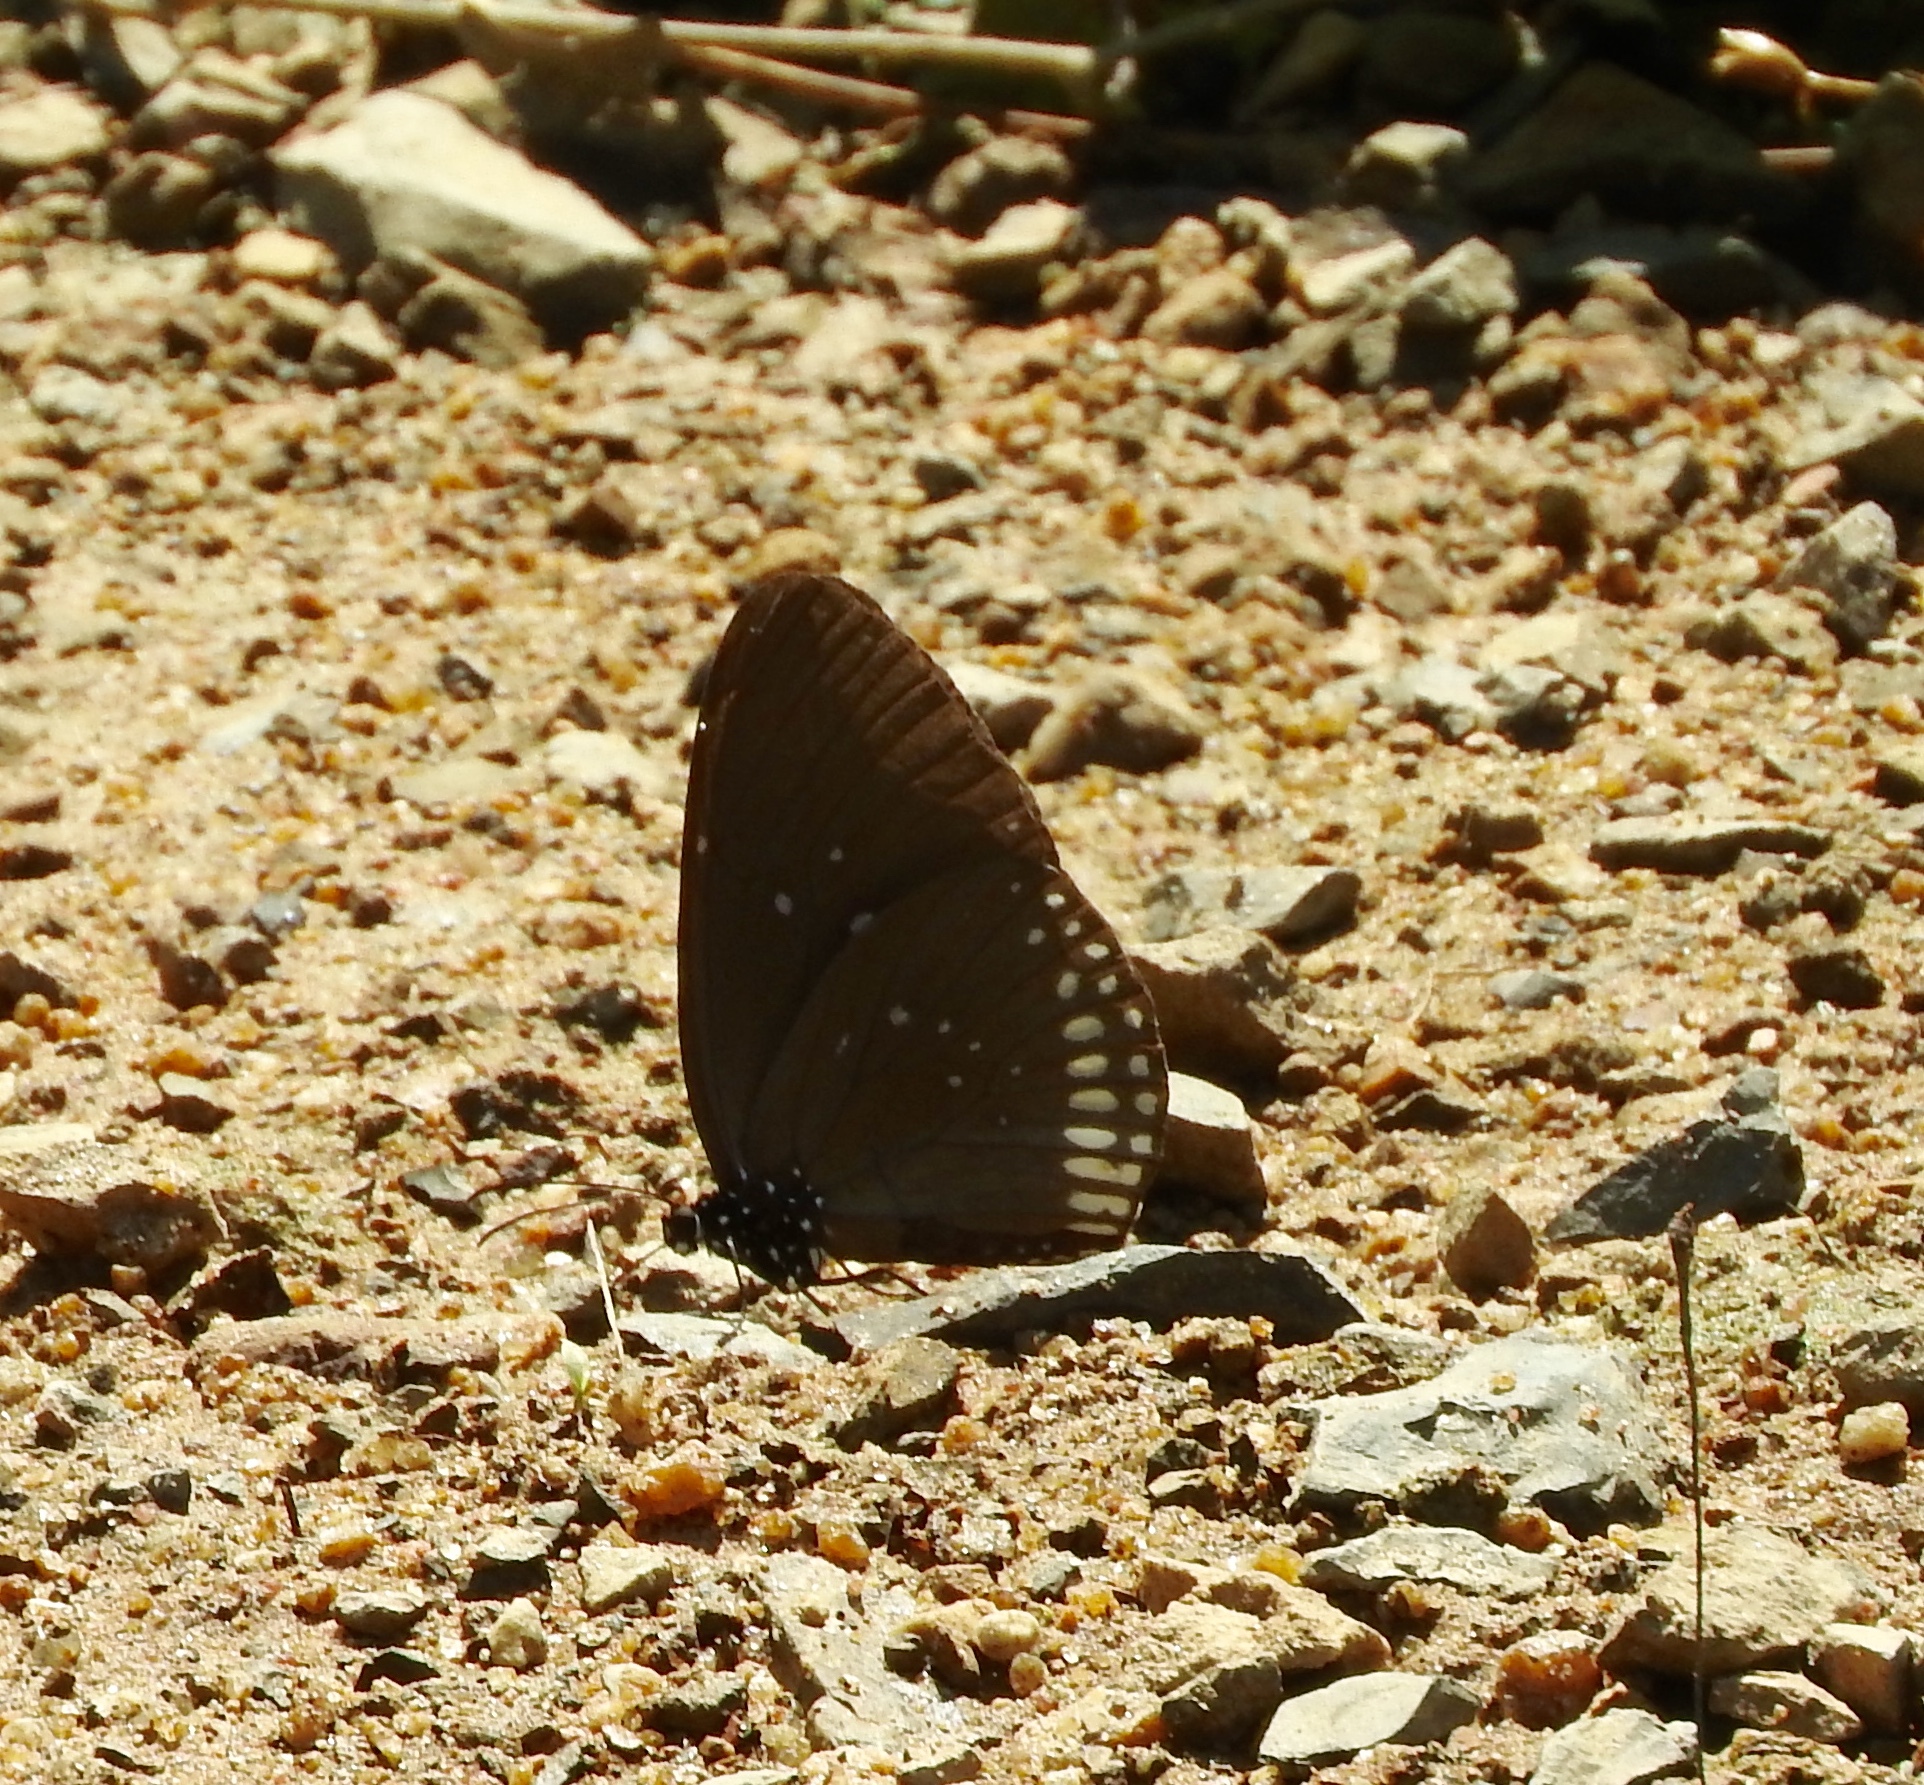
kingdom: Animalia
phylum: Arthropoda
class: Insecta
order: Lepidoptera
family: Nymphalidae
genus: Euploea
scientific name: Euploea core
